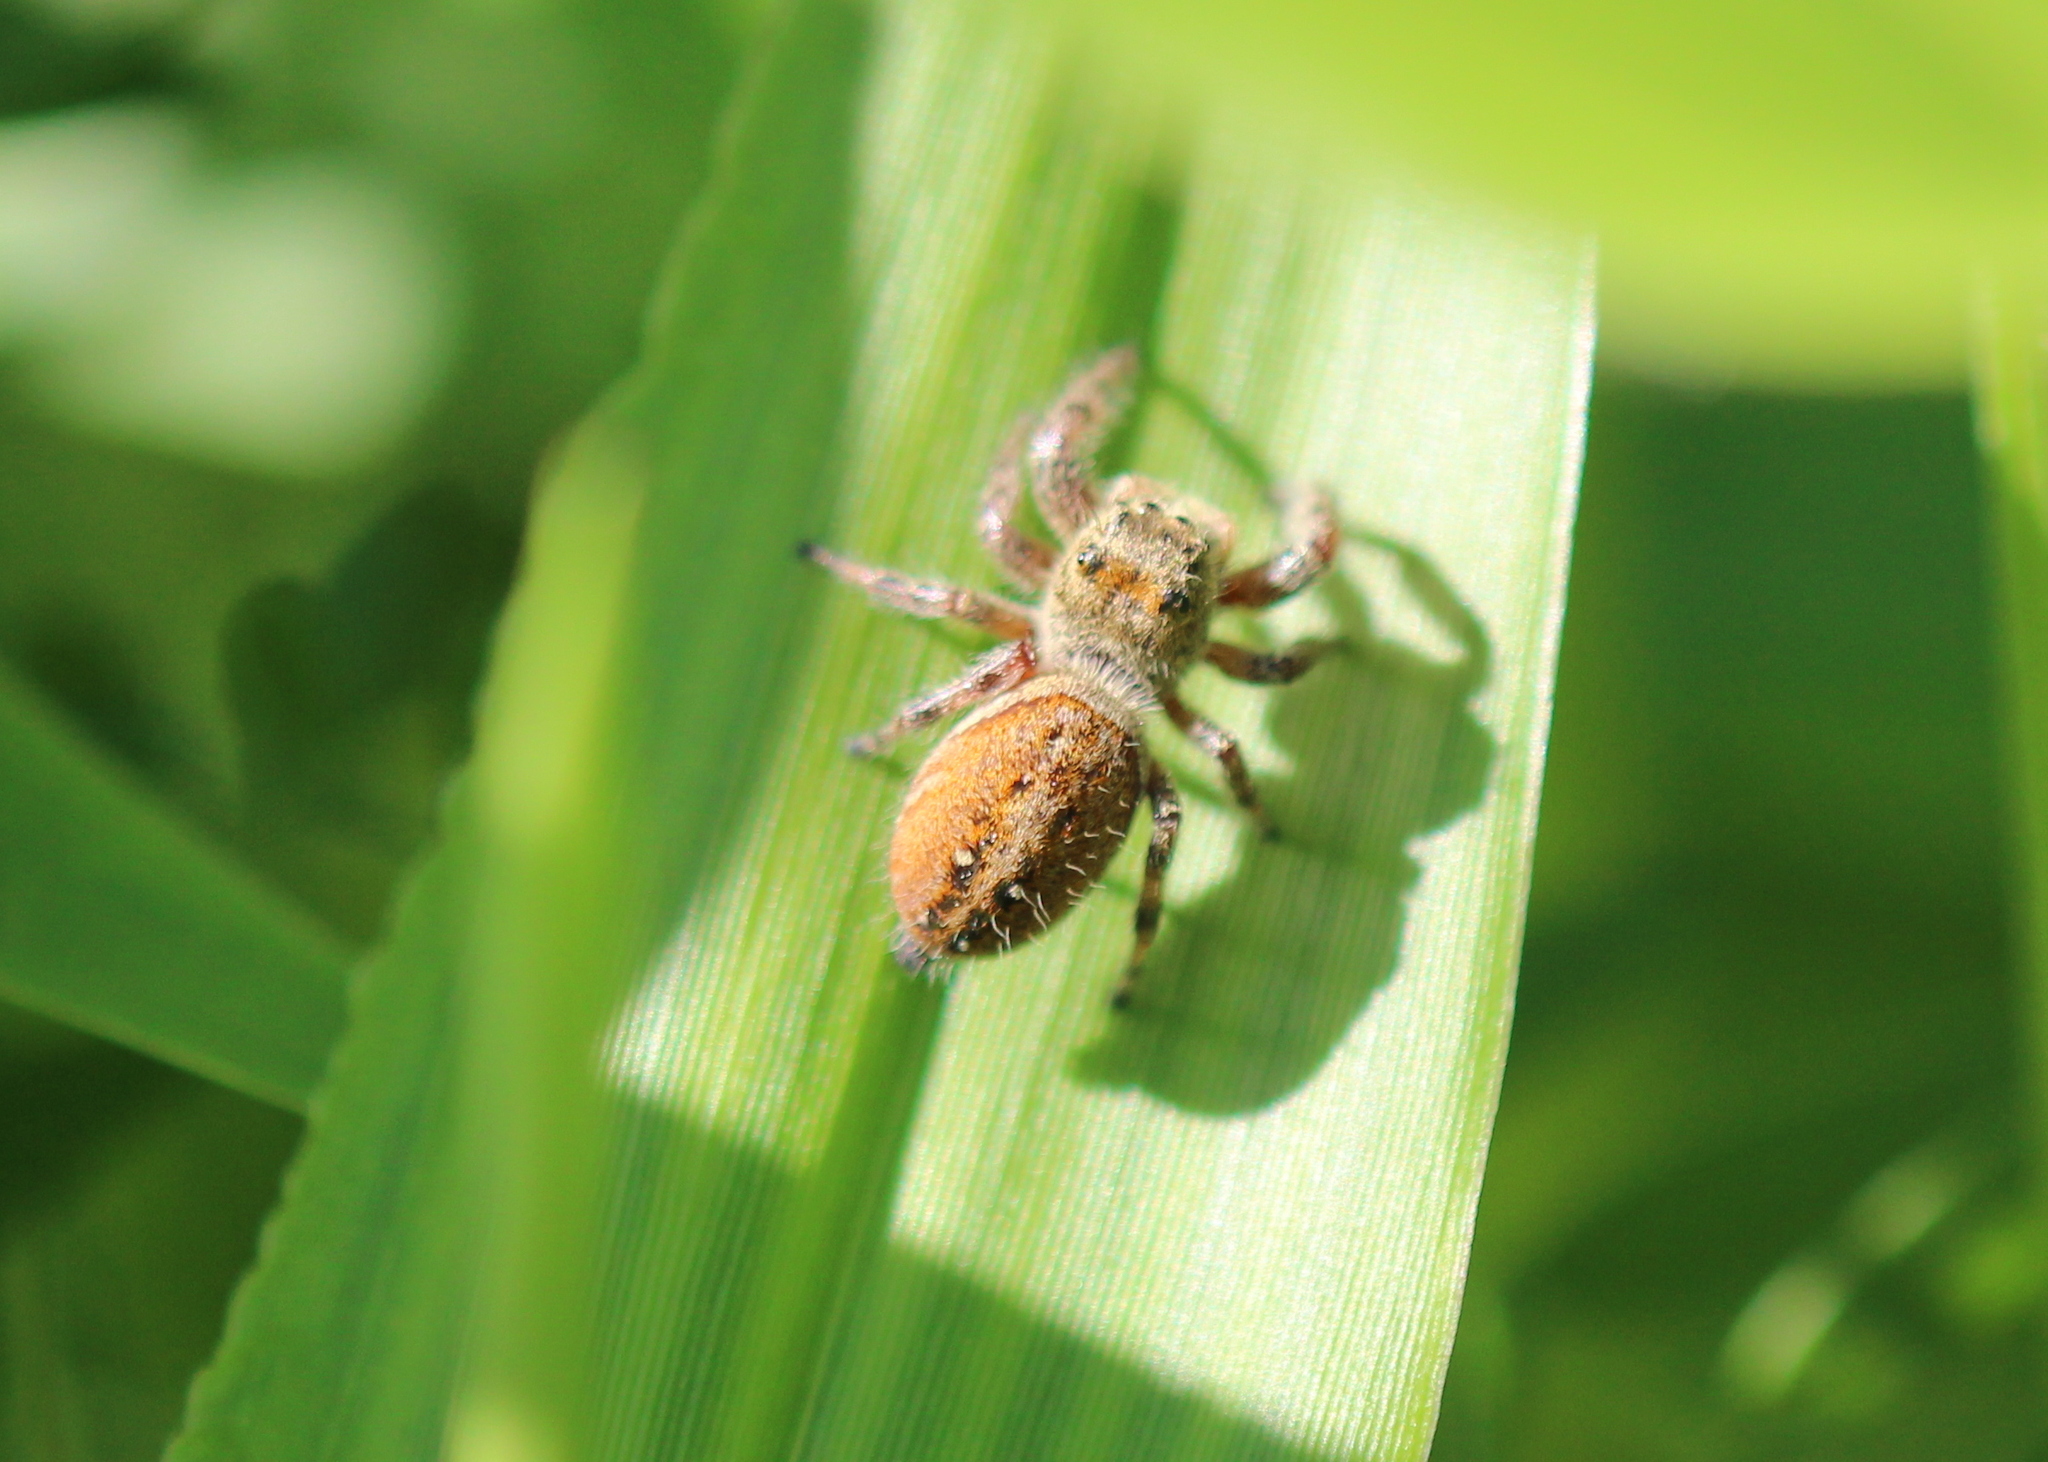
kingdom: Animalia
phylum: Arthropoda
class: Arachnida
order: Araneae
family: Salticidae
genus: Phidippus
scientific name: Phidippus clarus
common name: Brilliant jumping spider
